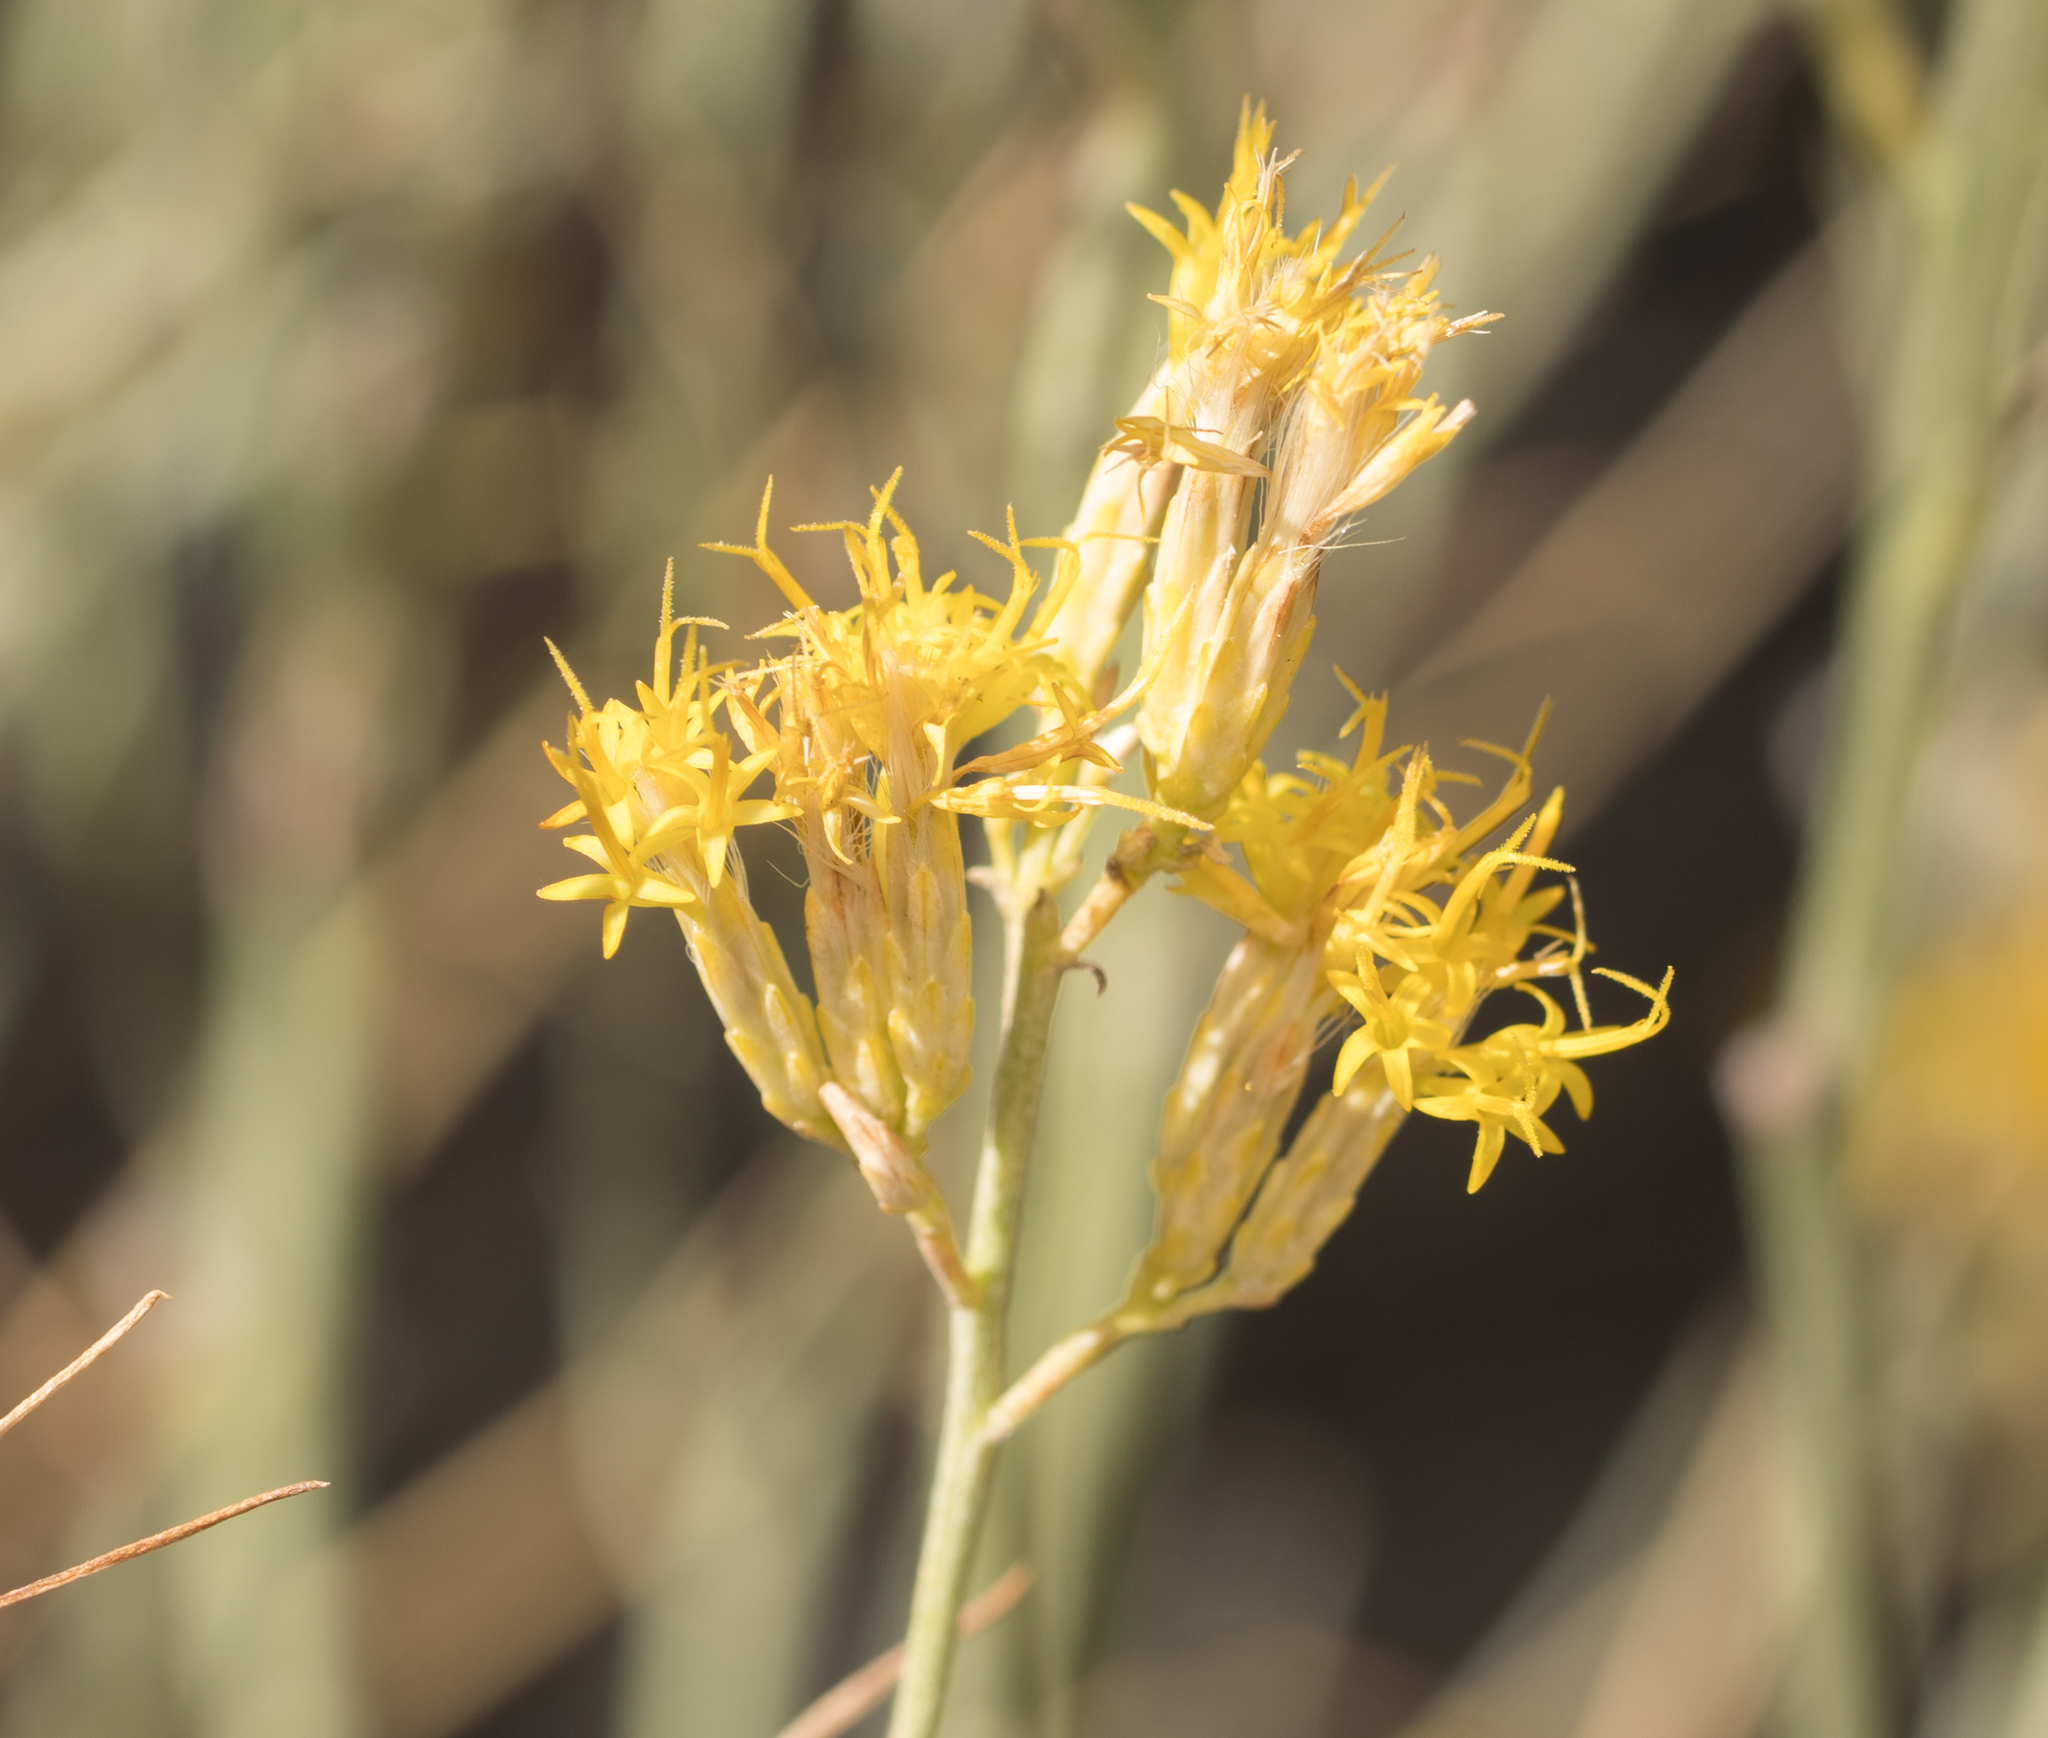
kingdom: Plantae
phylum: Tracheophyta
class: Magnoliopsida
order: Asterales
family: Asteraceae
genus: Ericameria
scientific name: Ericameria nauseosa
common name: Rubber rabbitbrush
